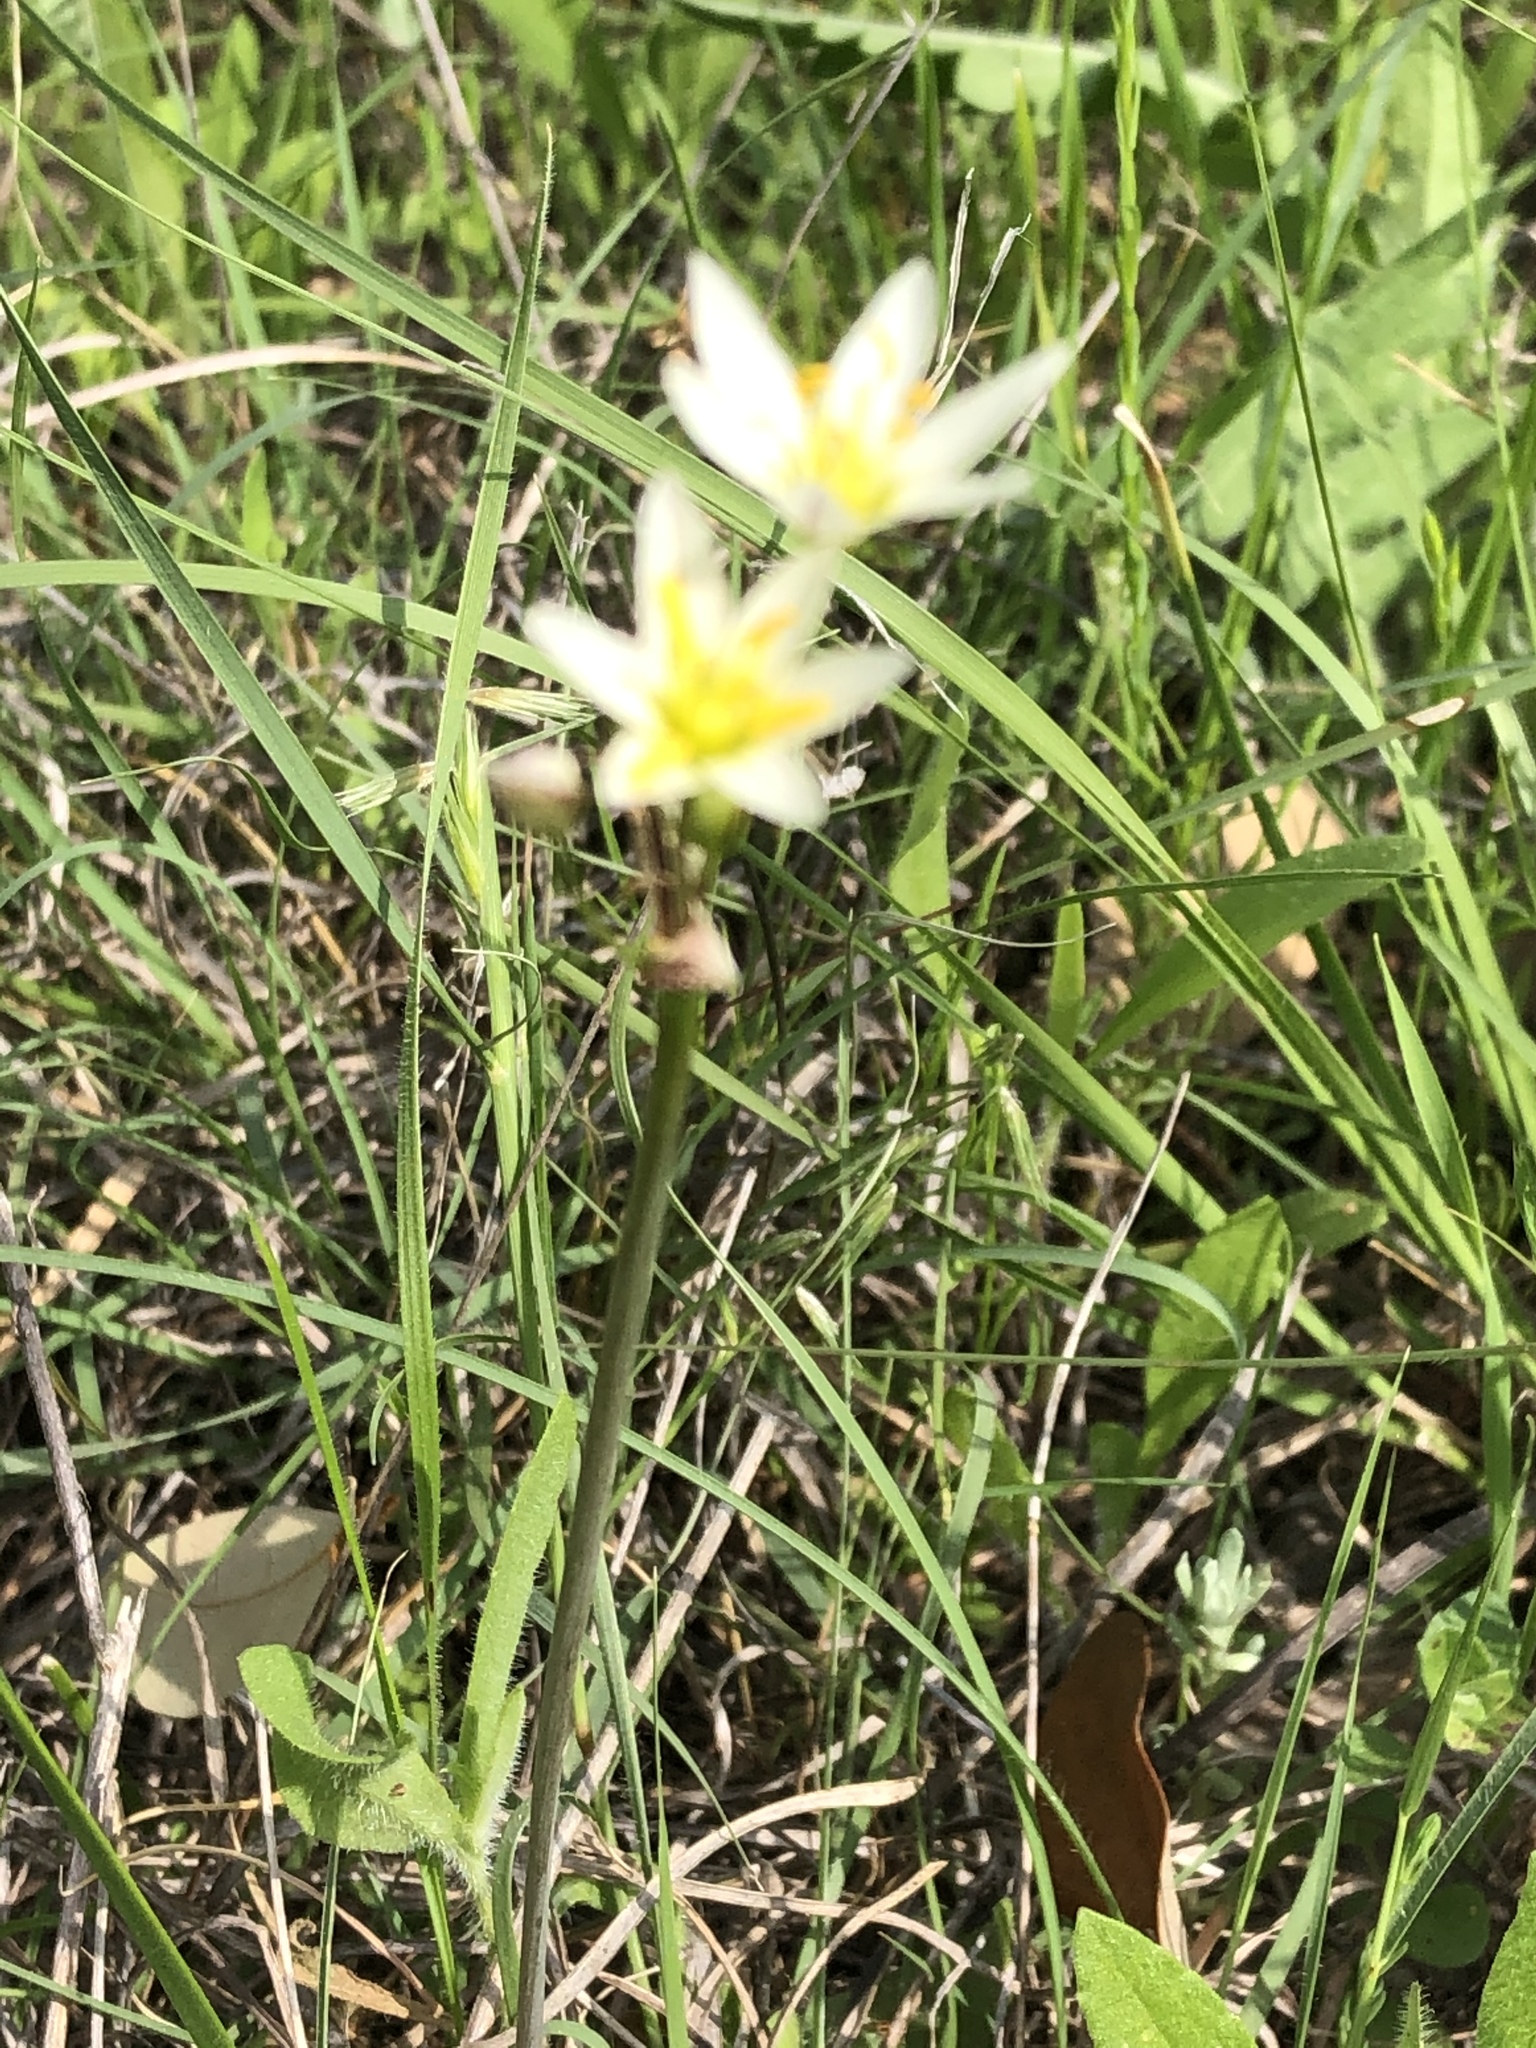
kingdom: Plantae
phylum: Tracheophyta
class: Liliopsida
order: Asparagales
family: Amaryllidaceae
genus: Nothoscordum
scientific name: Nothoscordum bivalve
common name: Crow-poison
